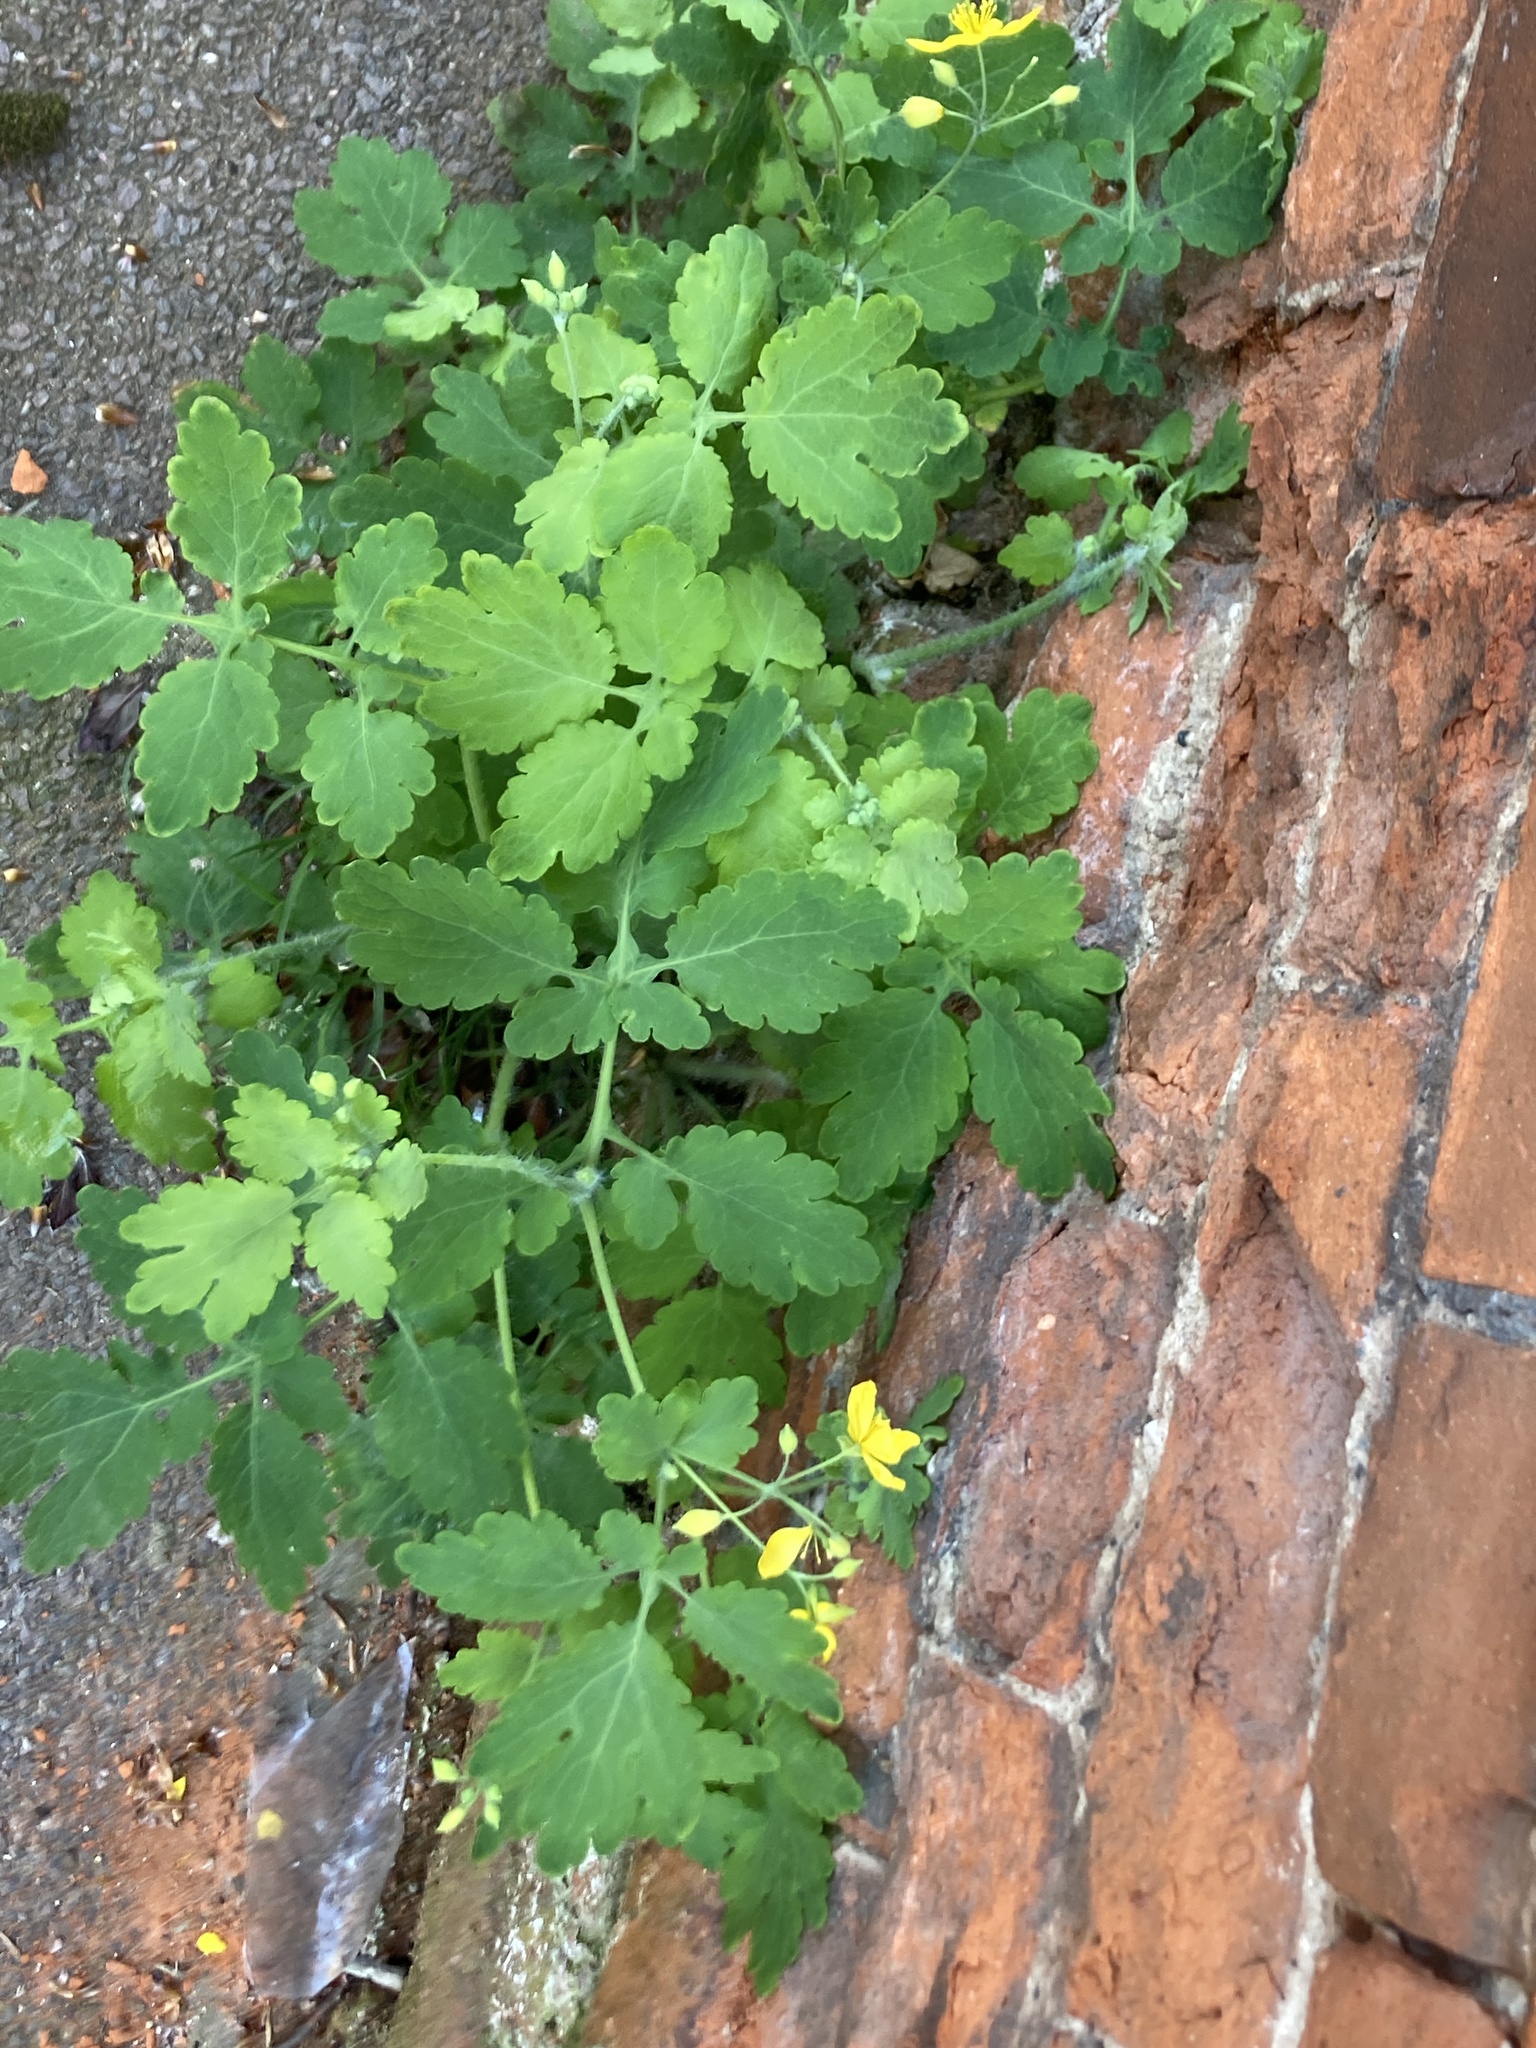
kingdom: Plantae
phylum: Tracheophyta
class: Magnoliopsida
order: Ranunculales
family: Papaveraceae
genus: Chelidonium
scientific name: Chelidonium majus
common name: Greater celandine
